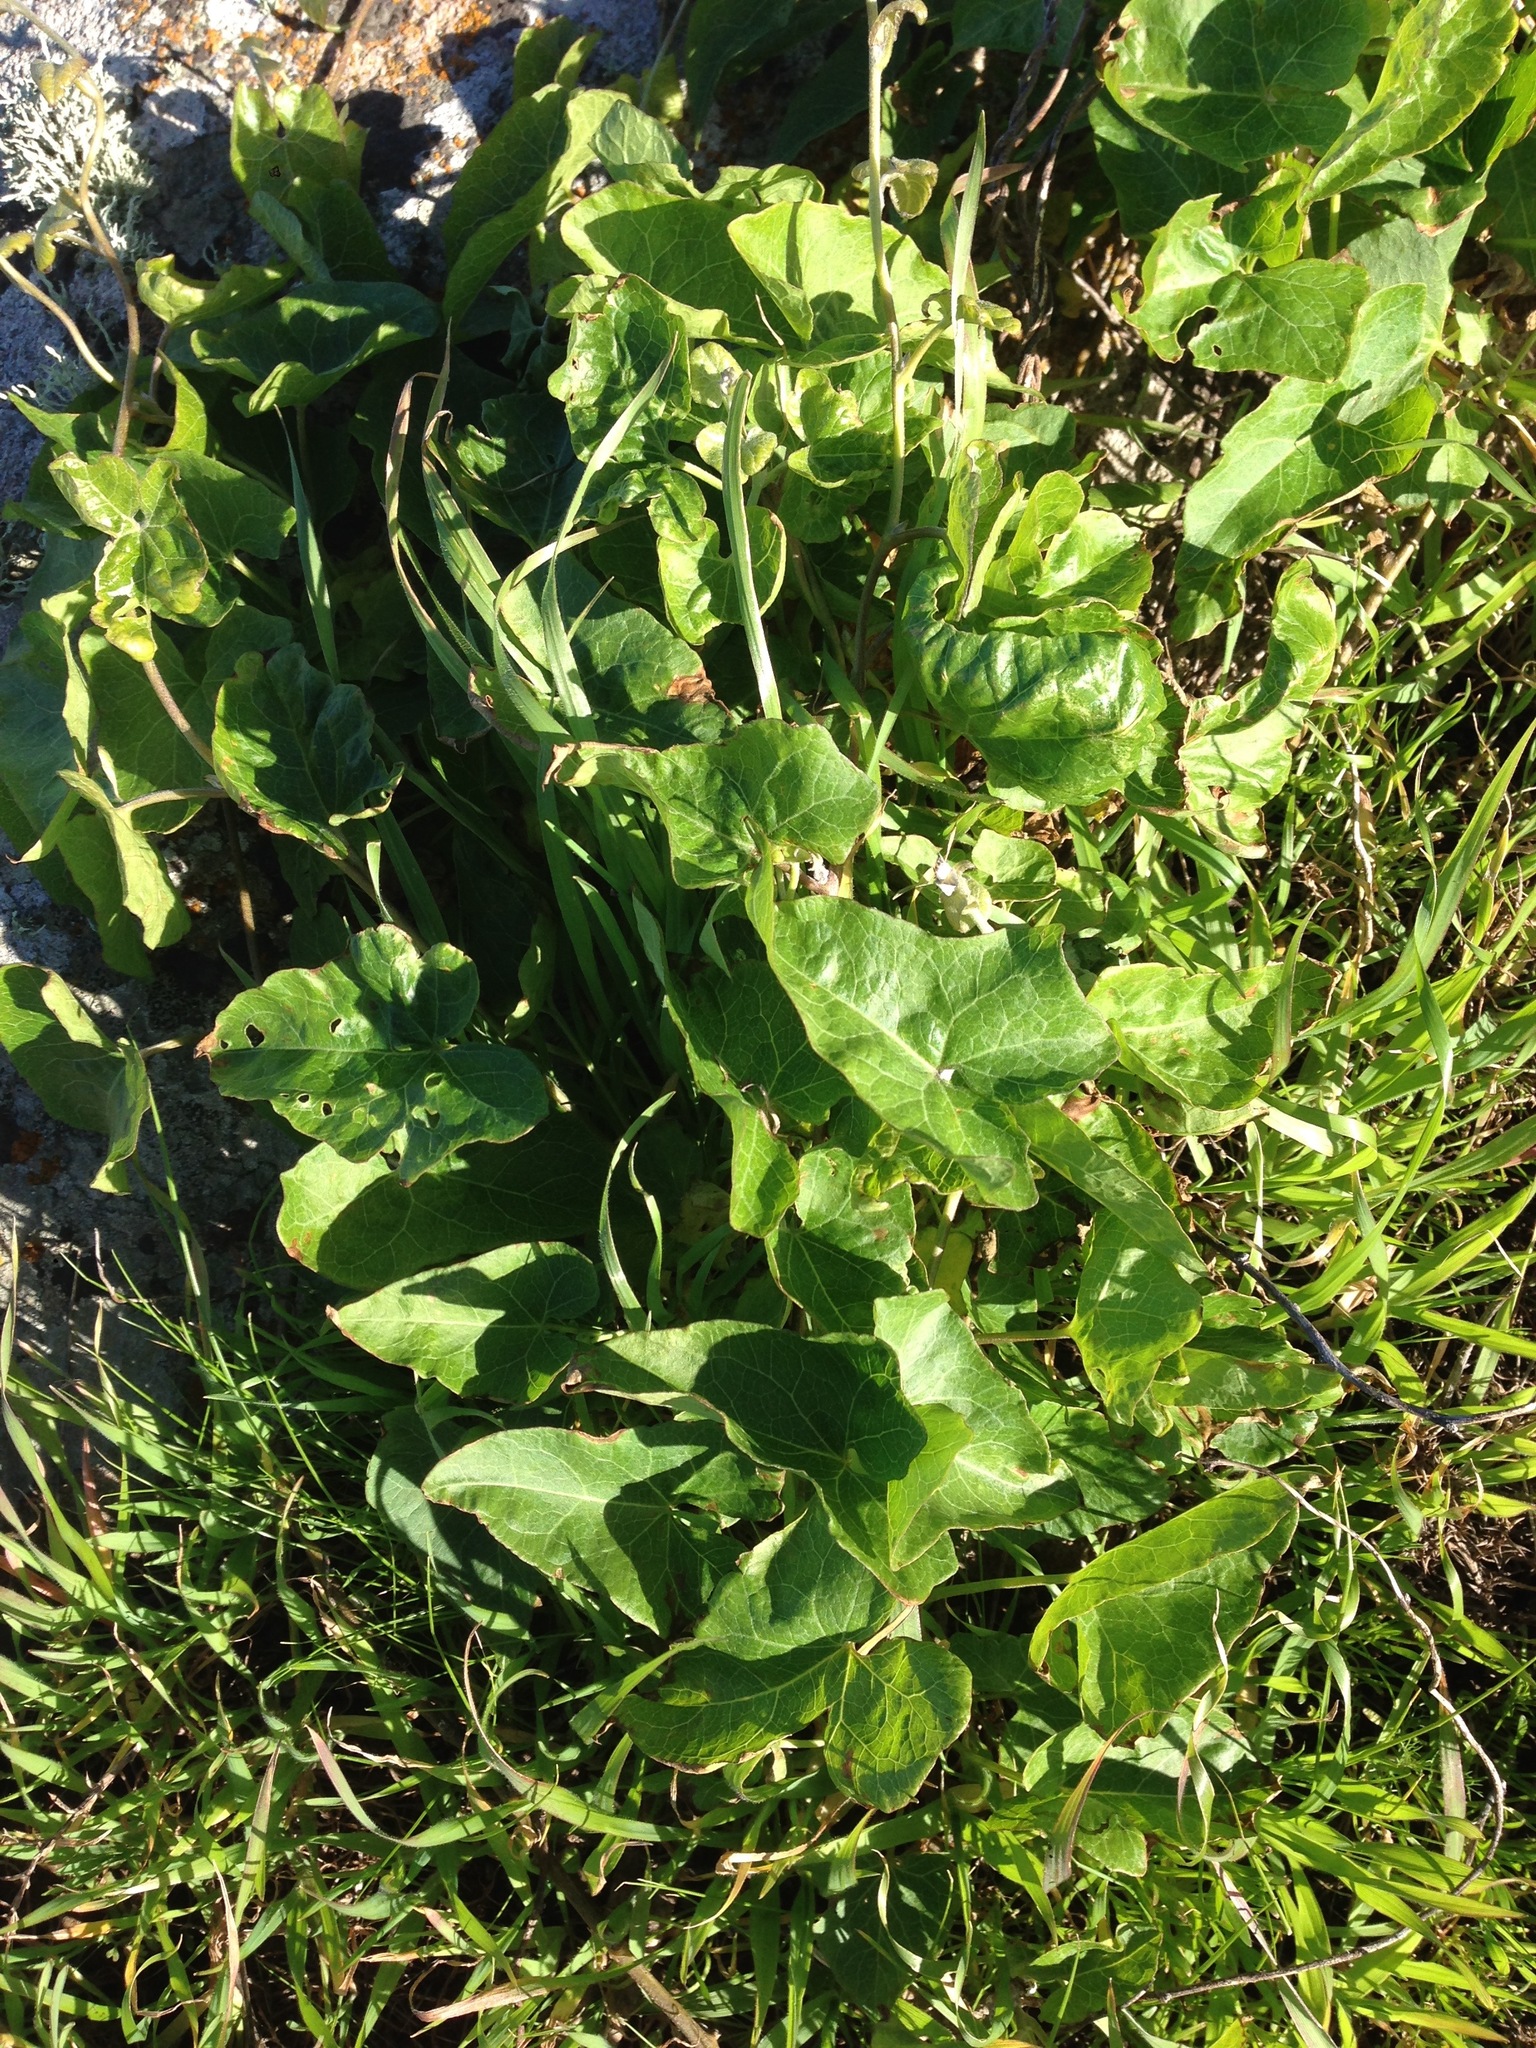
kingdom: Plantae
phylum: Tracheophyta
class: Magnoliopsida
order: Solanales
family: Convolvulaceae
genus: Calystegia
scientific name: Calystegia macrostegia
